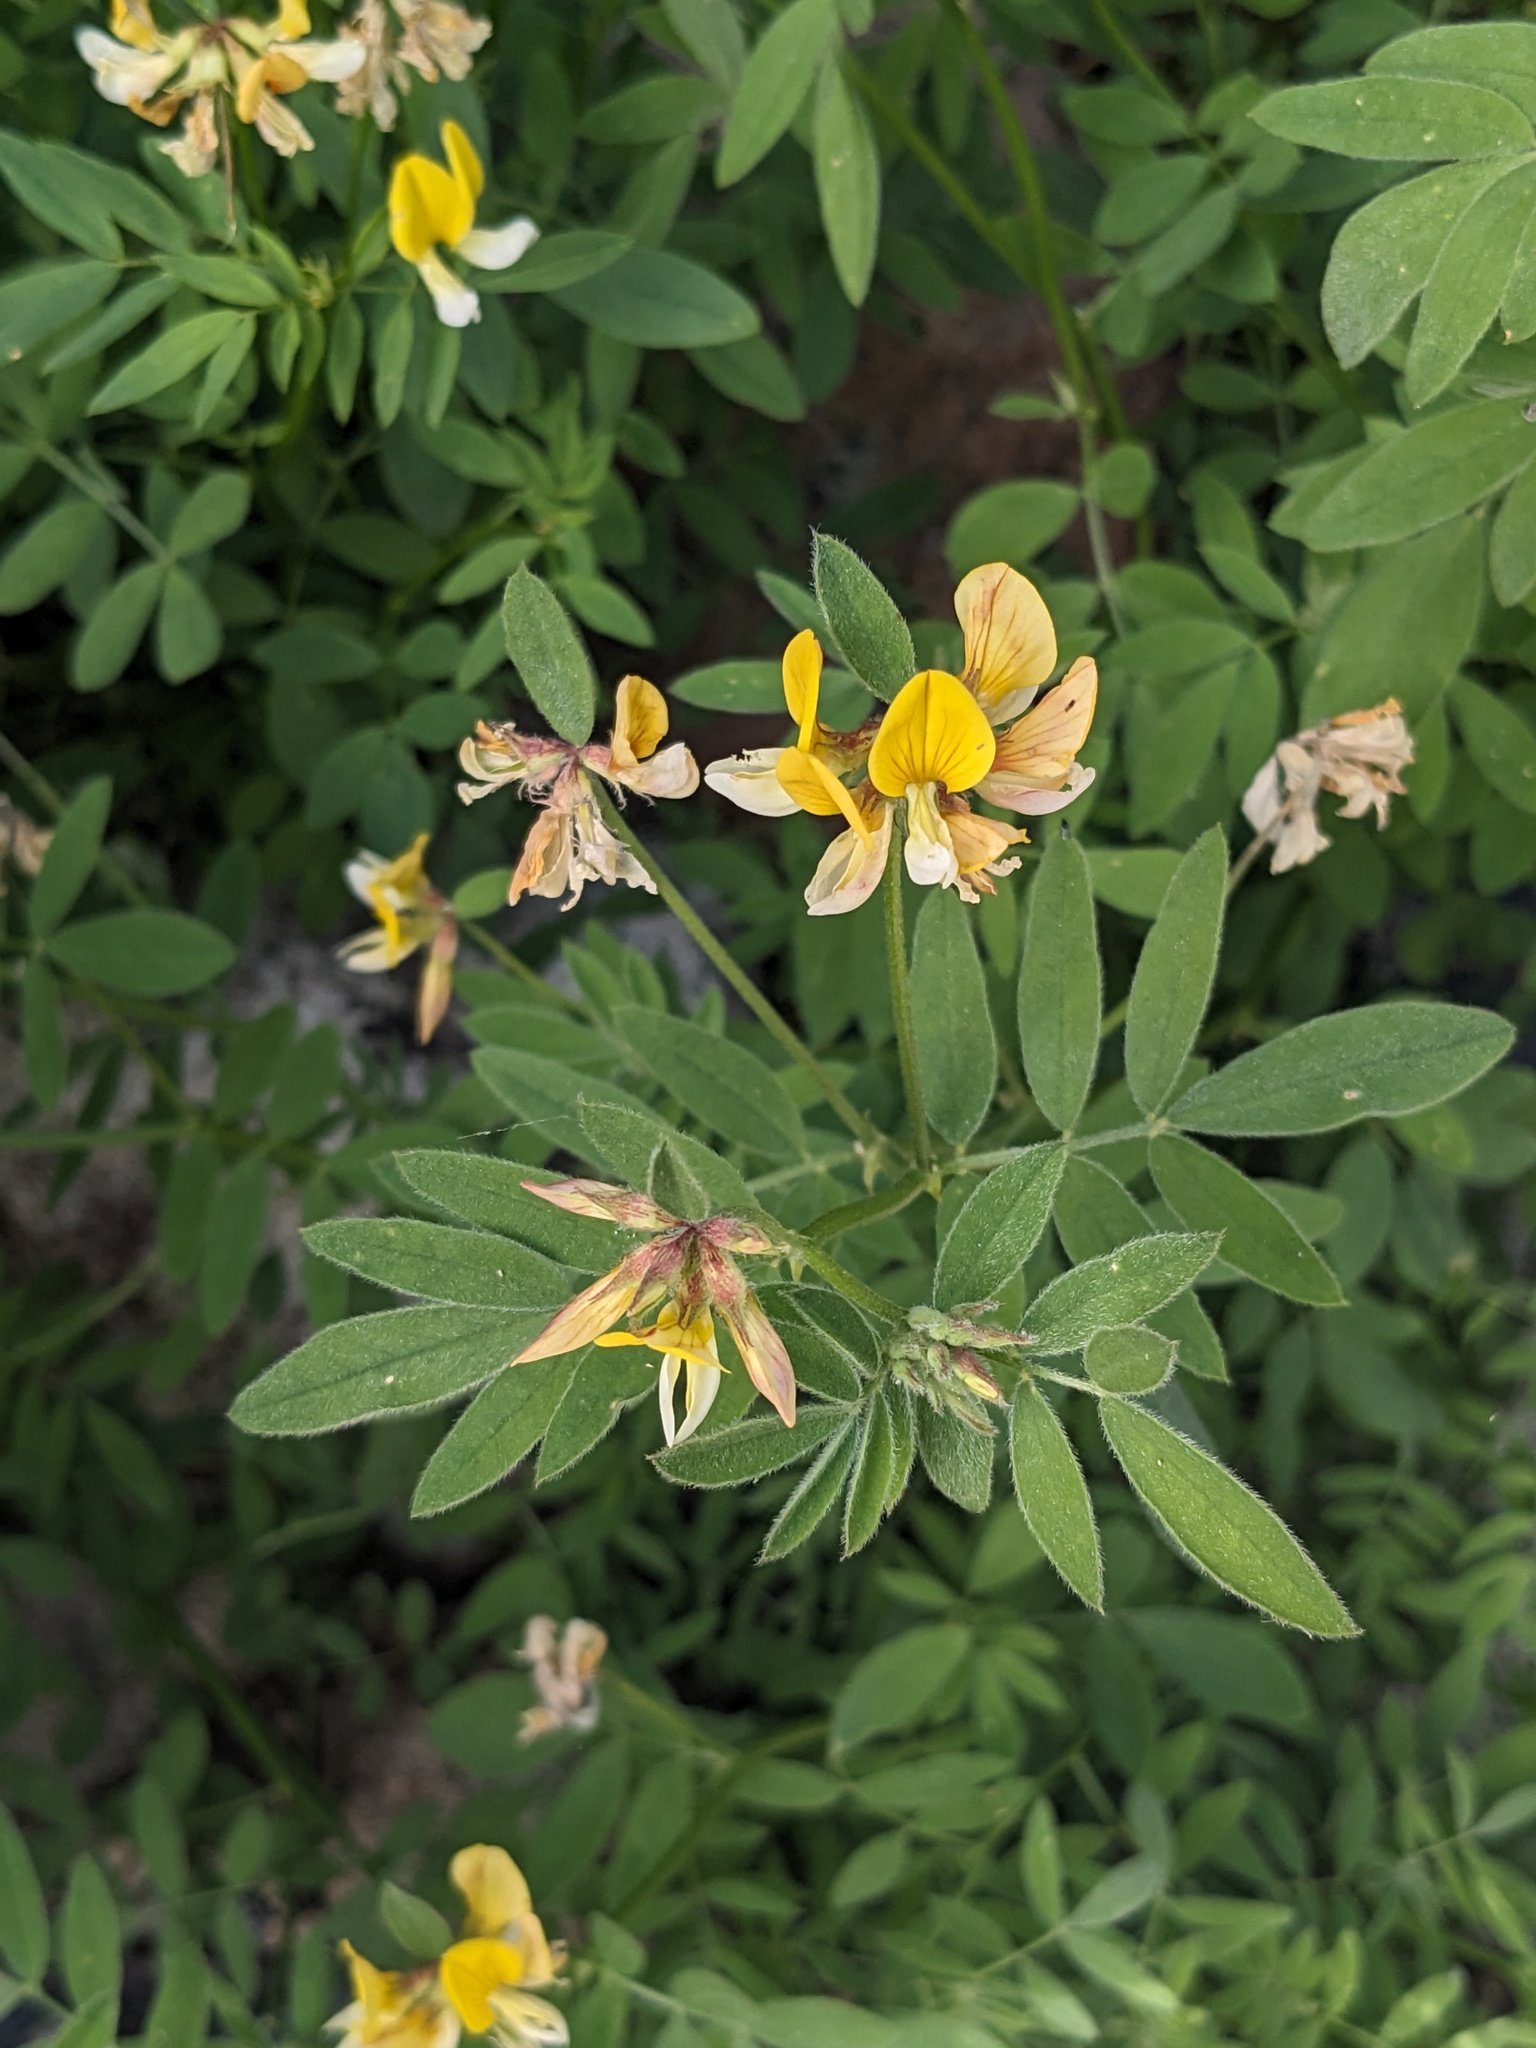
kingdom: Plantae
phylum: Tracheophyta
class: Magnoliopsida
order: Fabales
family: Fabaceae
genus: Hosackia
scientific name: Hosackia oblongifolia
